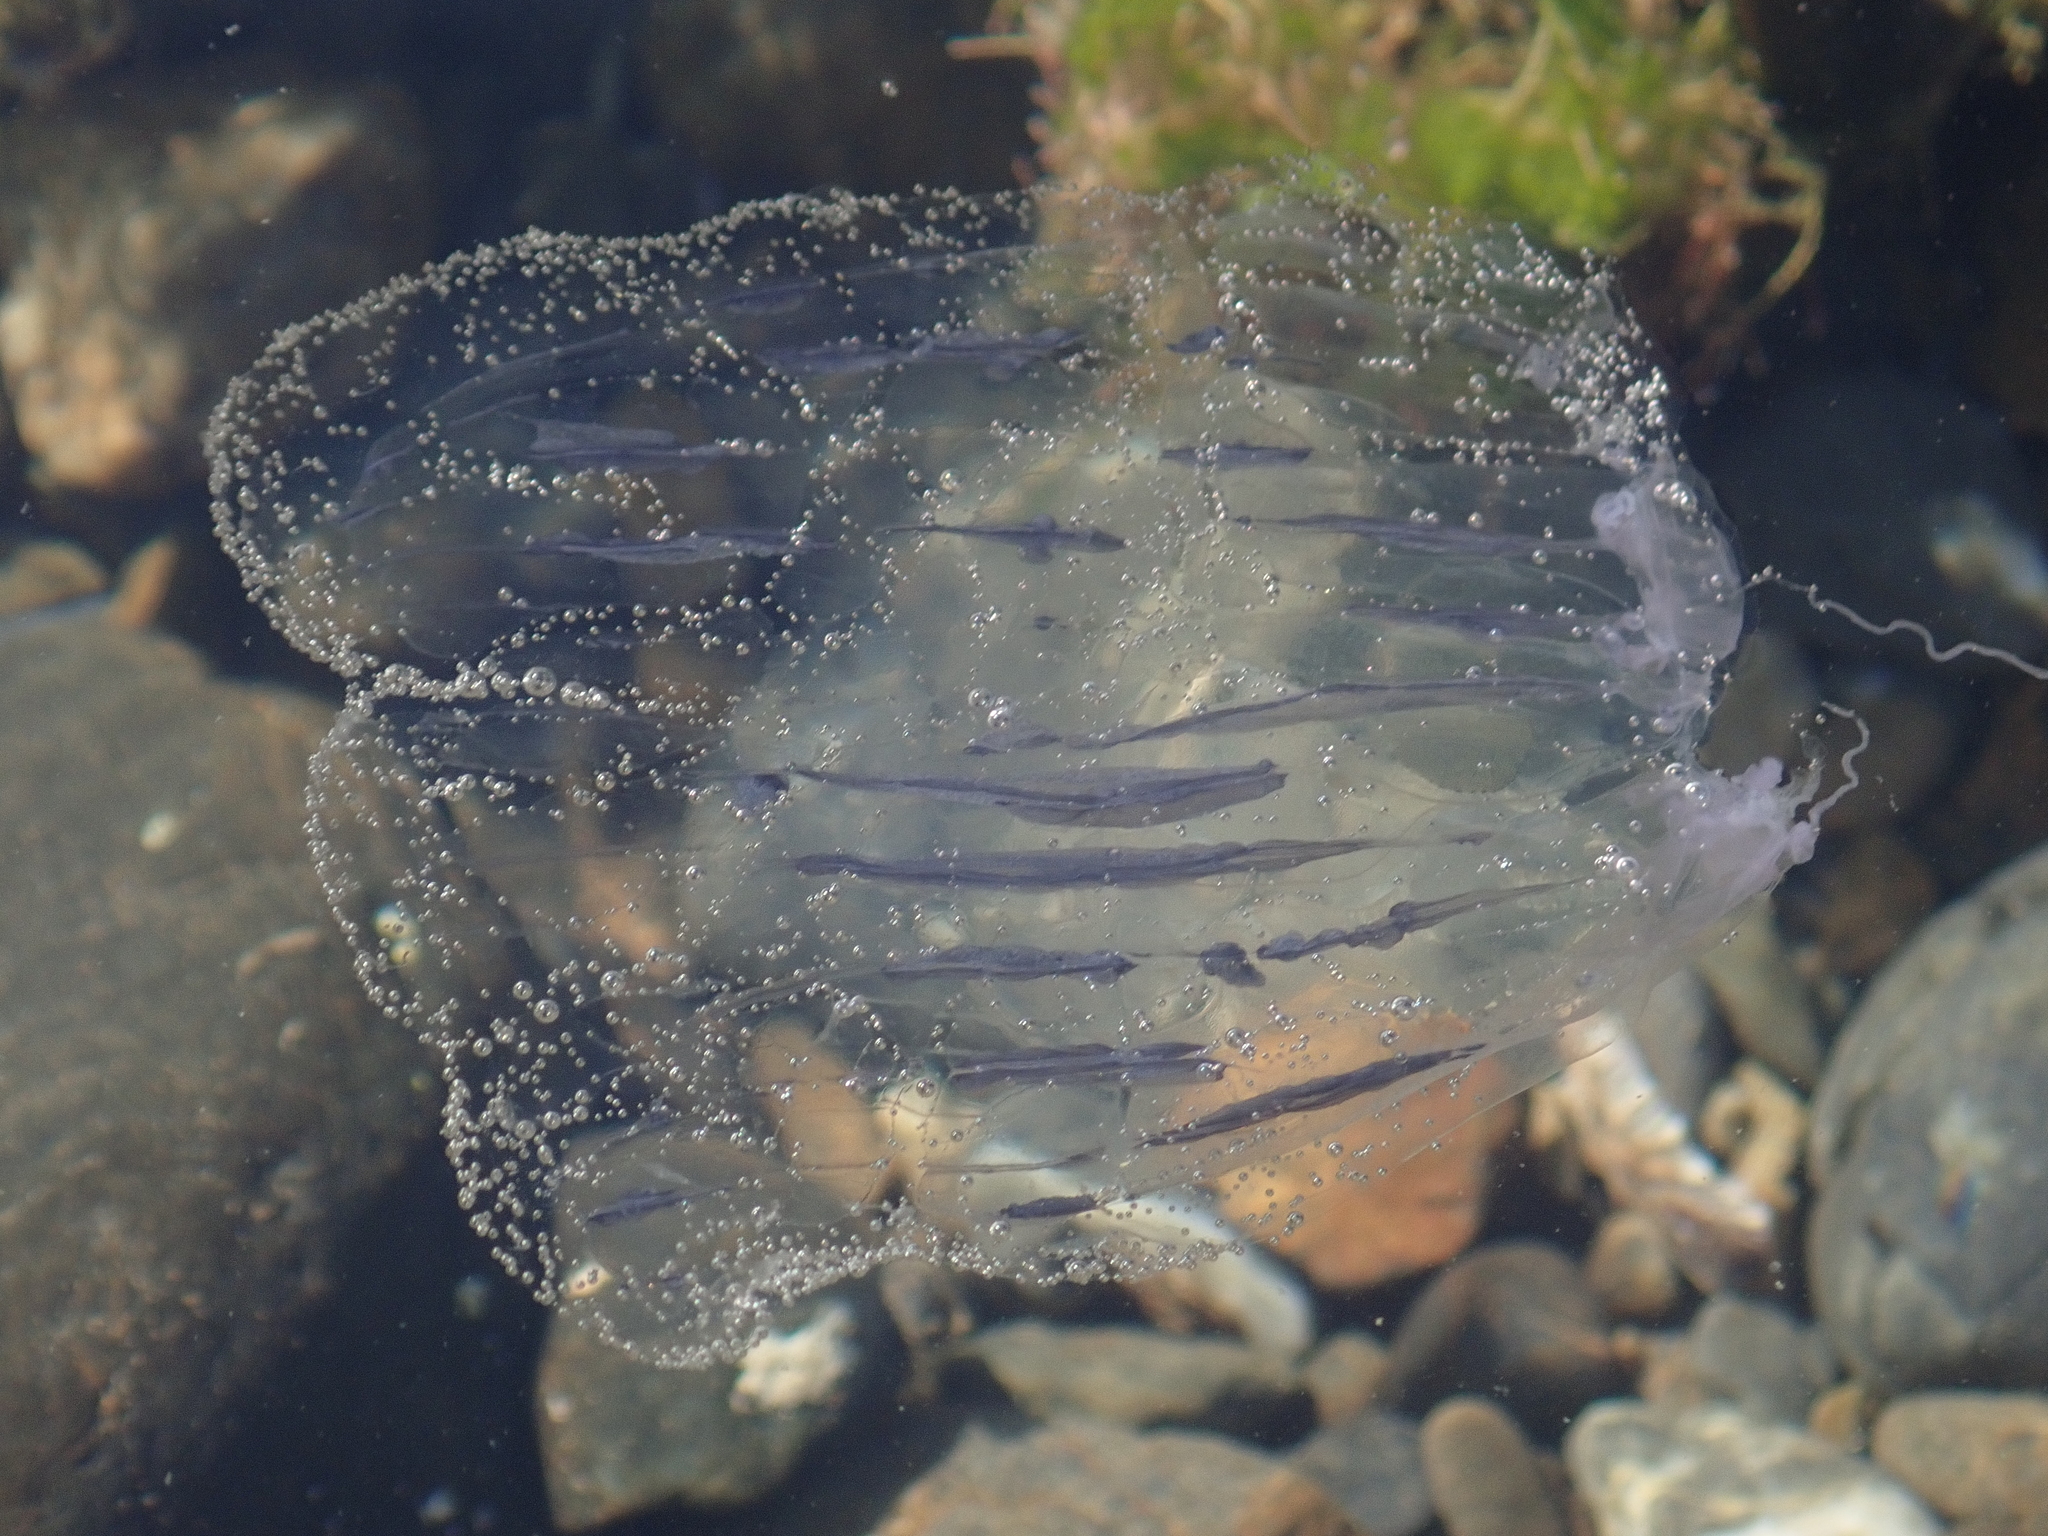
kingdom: Animalia
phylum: Cnidaria
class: Hydrozoa
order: Leptothecata
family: Aequoreidae
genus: Aequorea
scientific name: Aequorea forskalea
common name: Many-ribbed jellyfish
